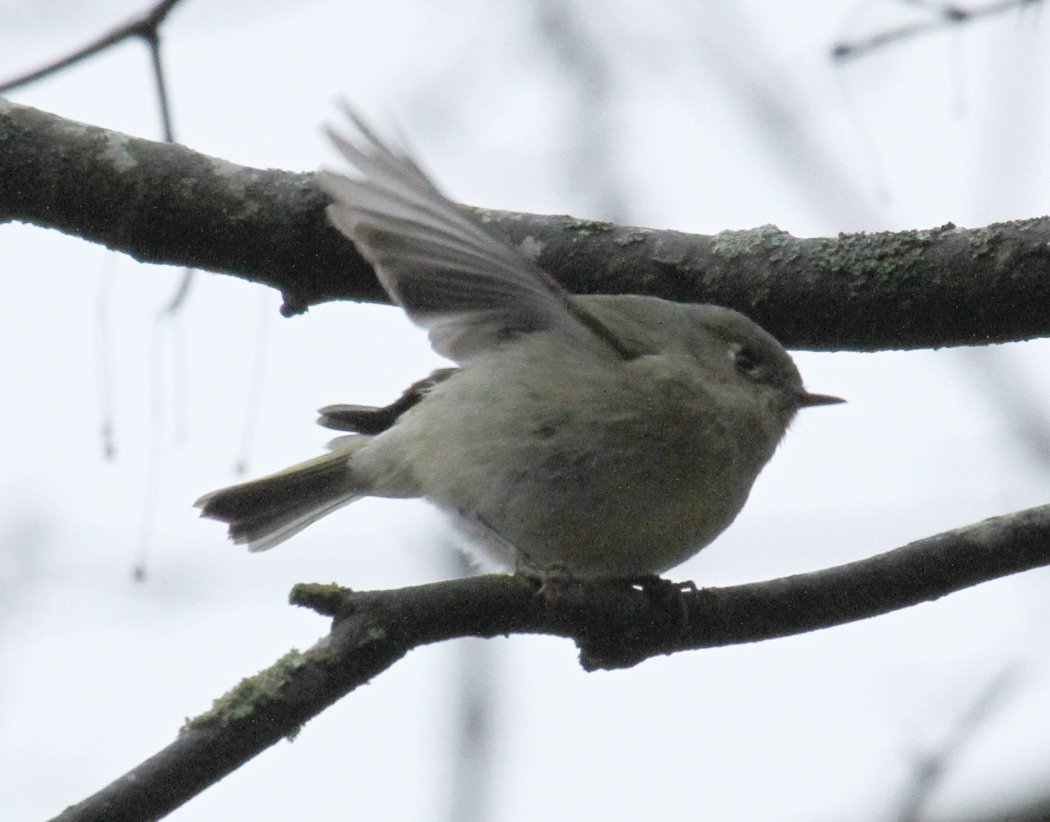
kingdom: Animalia
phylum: Chordata
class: Aves
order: Passeriformes
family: Regulidae
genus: Regulus
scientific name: Regulus calendula
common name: Ruby-crowned kinglet
